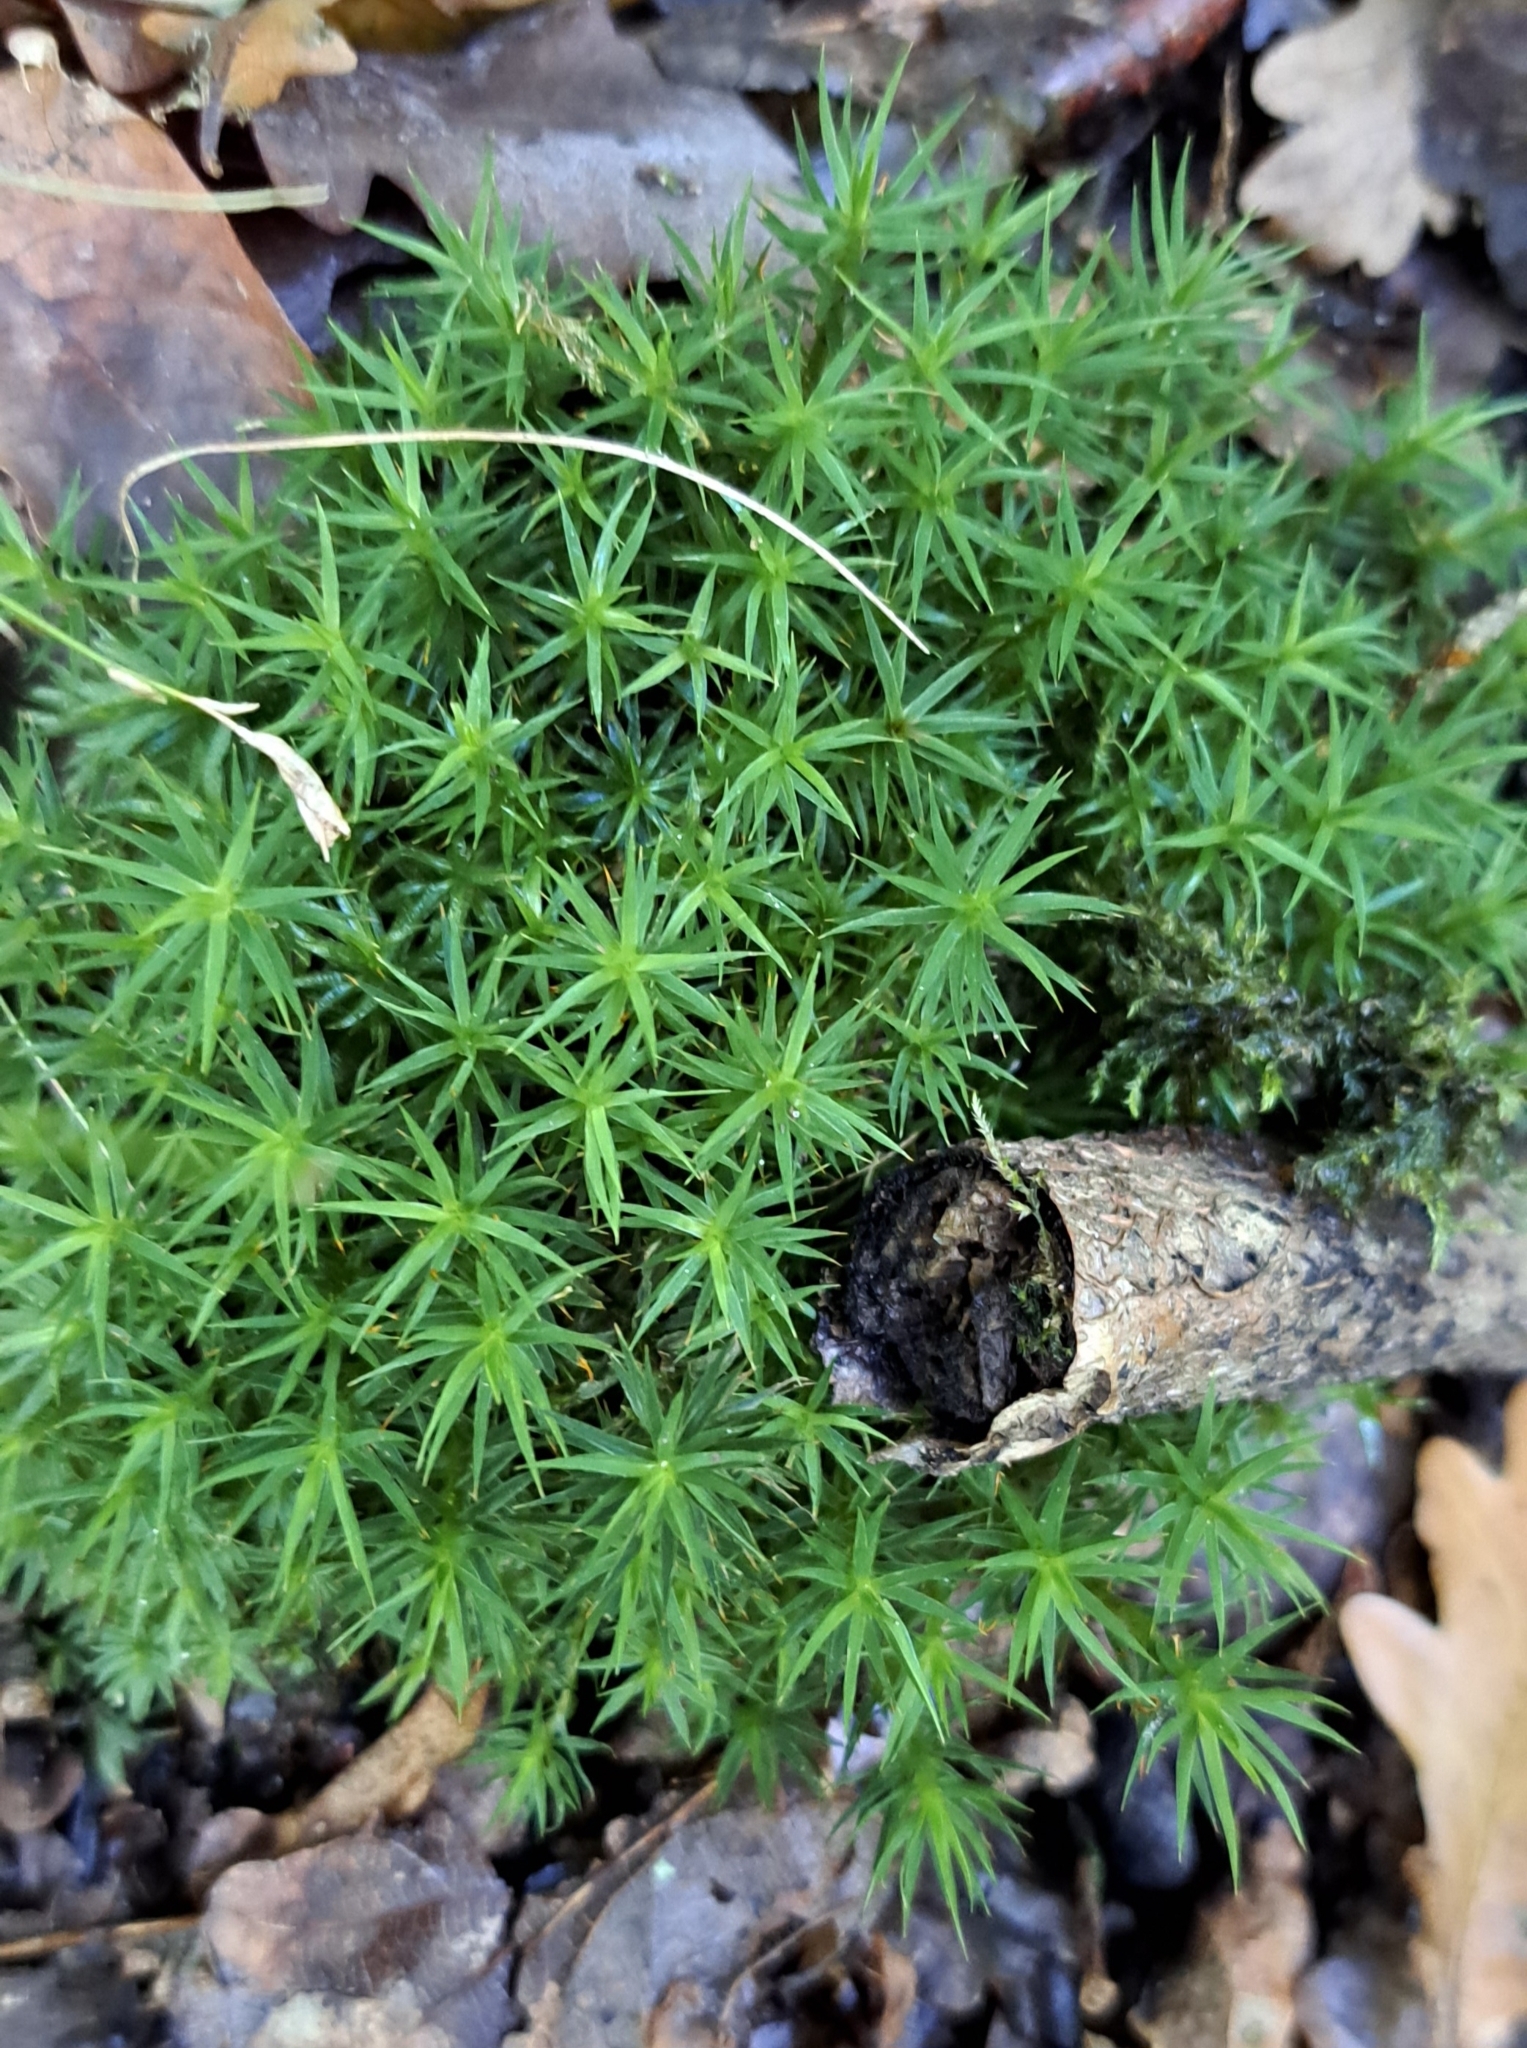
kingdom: Plantae
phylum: Bryophyta
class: Polytrichopsida
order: Polytrichales
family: Polytrichaceae
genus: Polytrichum
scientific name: Polytrichum formosum
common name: Bank haircap moss
